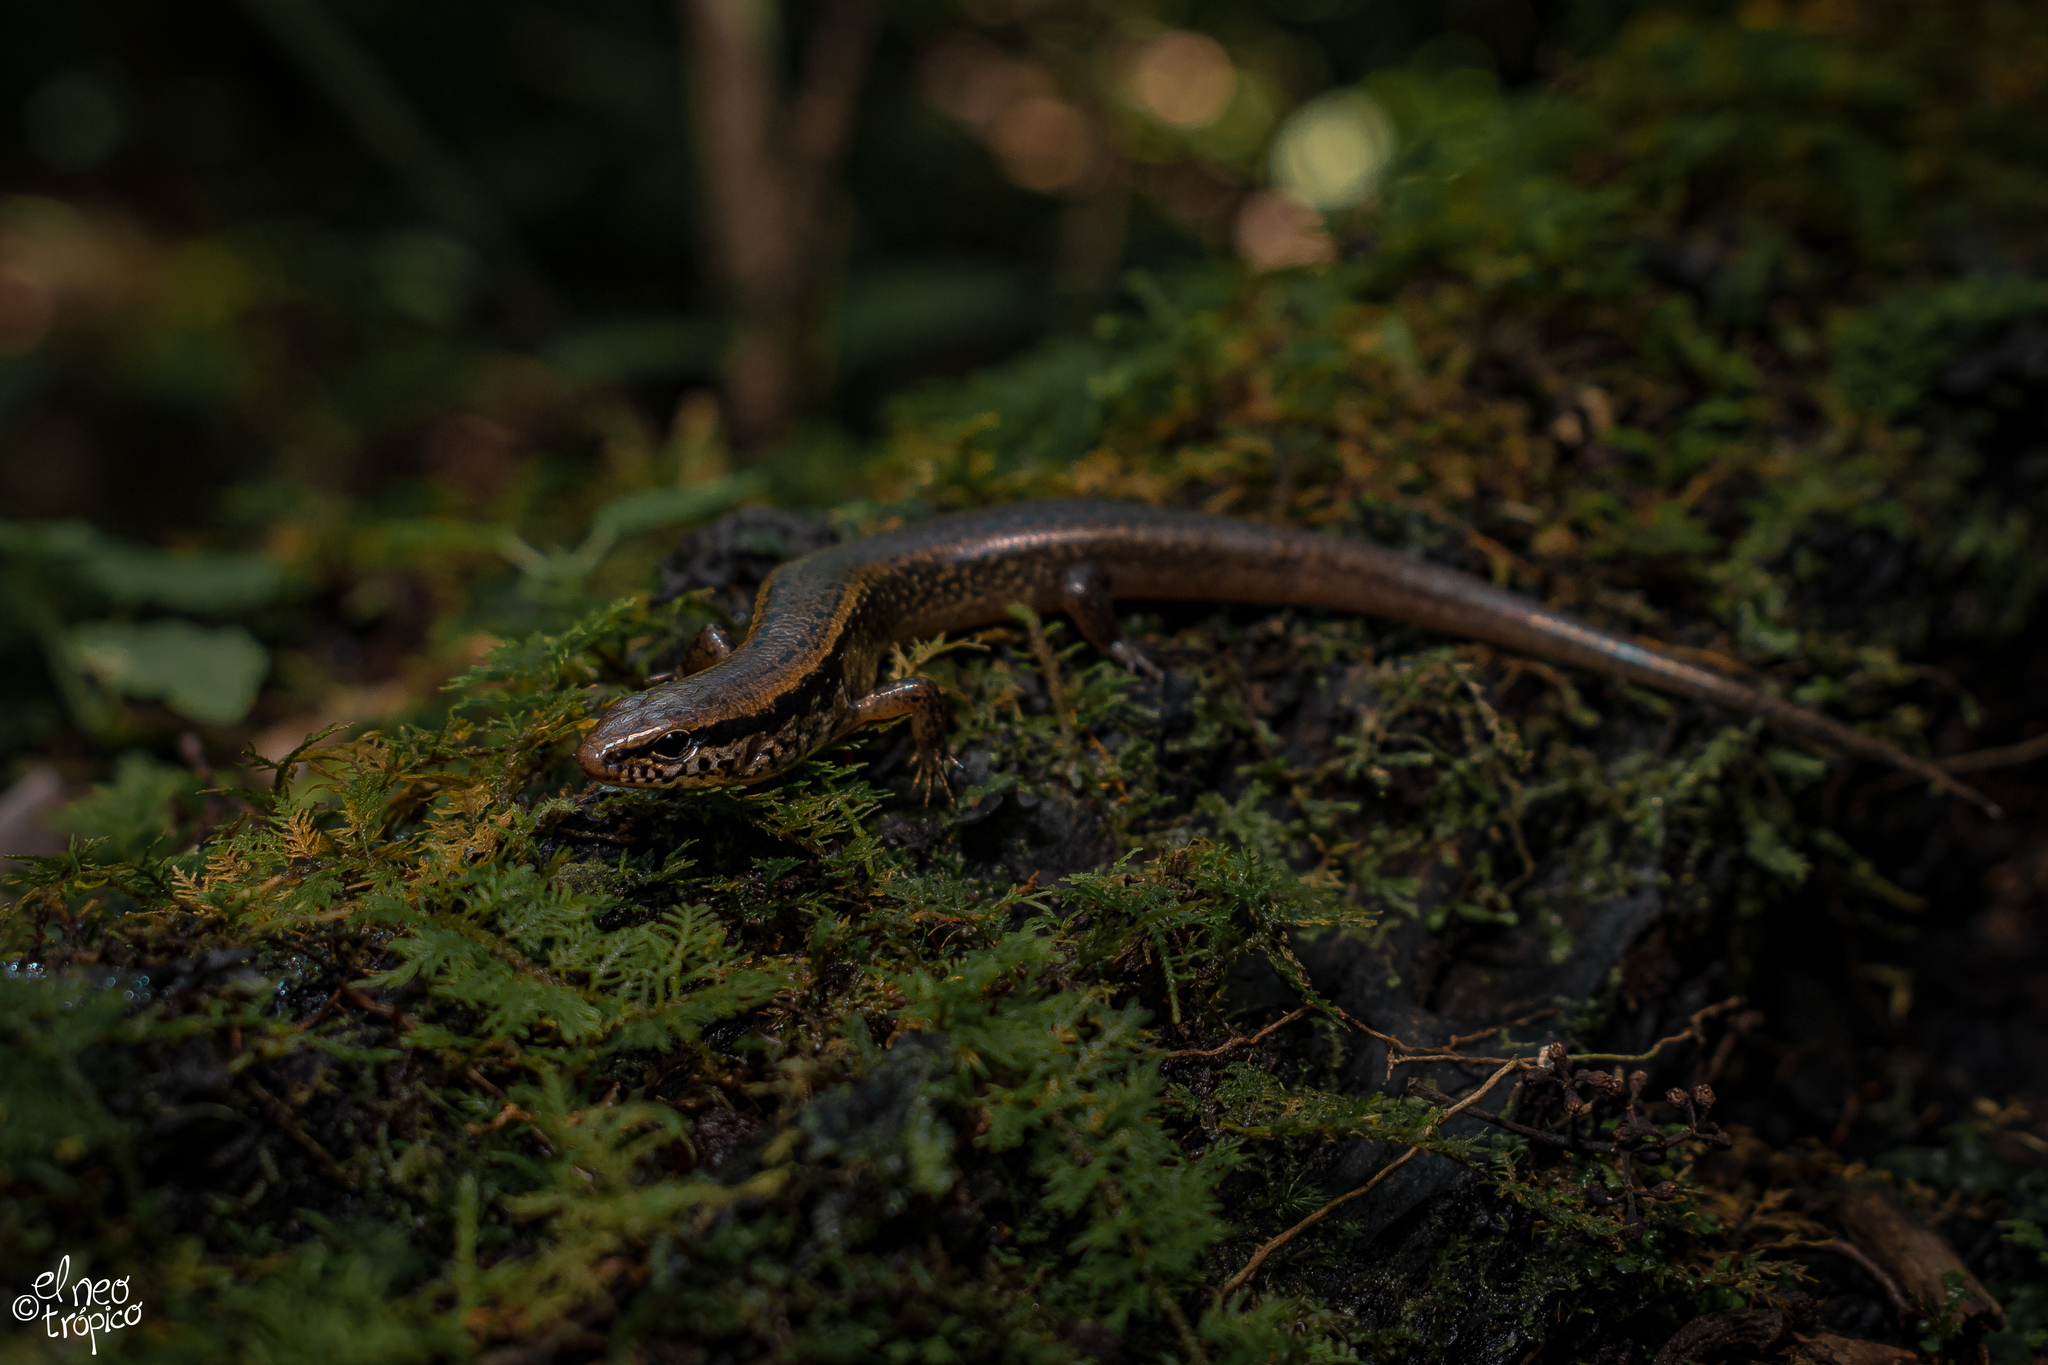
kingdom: Animalia
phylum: Chordata
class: Squamata
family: Scincidae
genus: Scincella
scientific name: Scincella cherriei
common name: Brown forest skink
